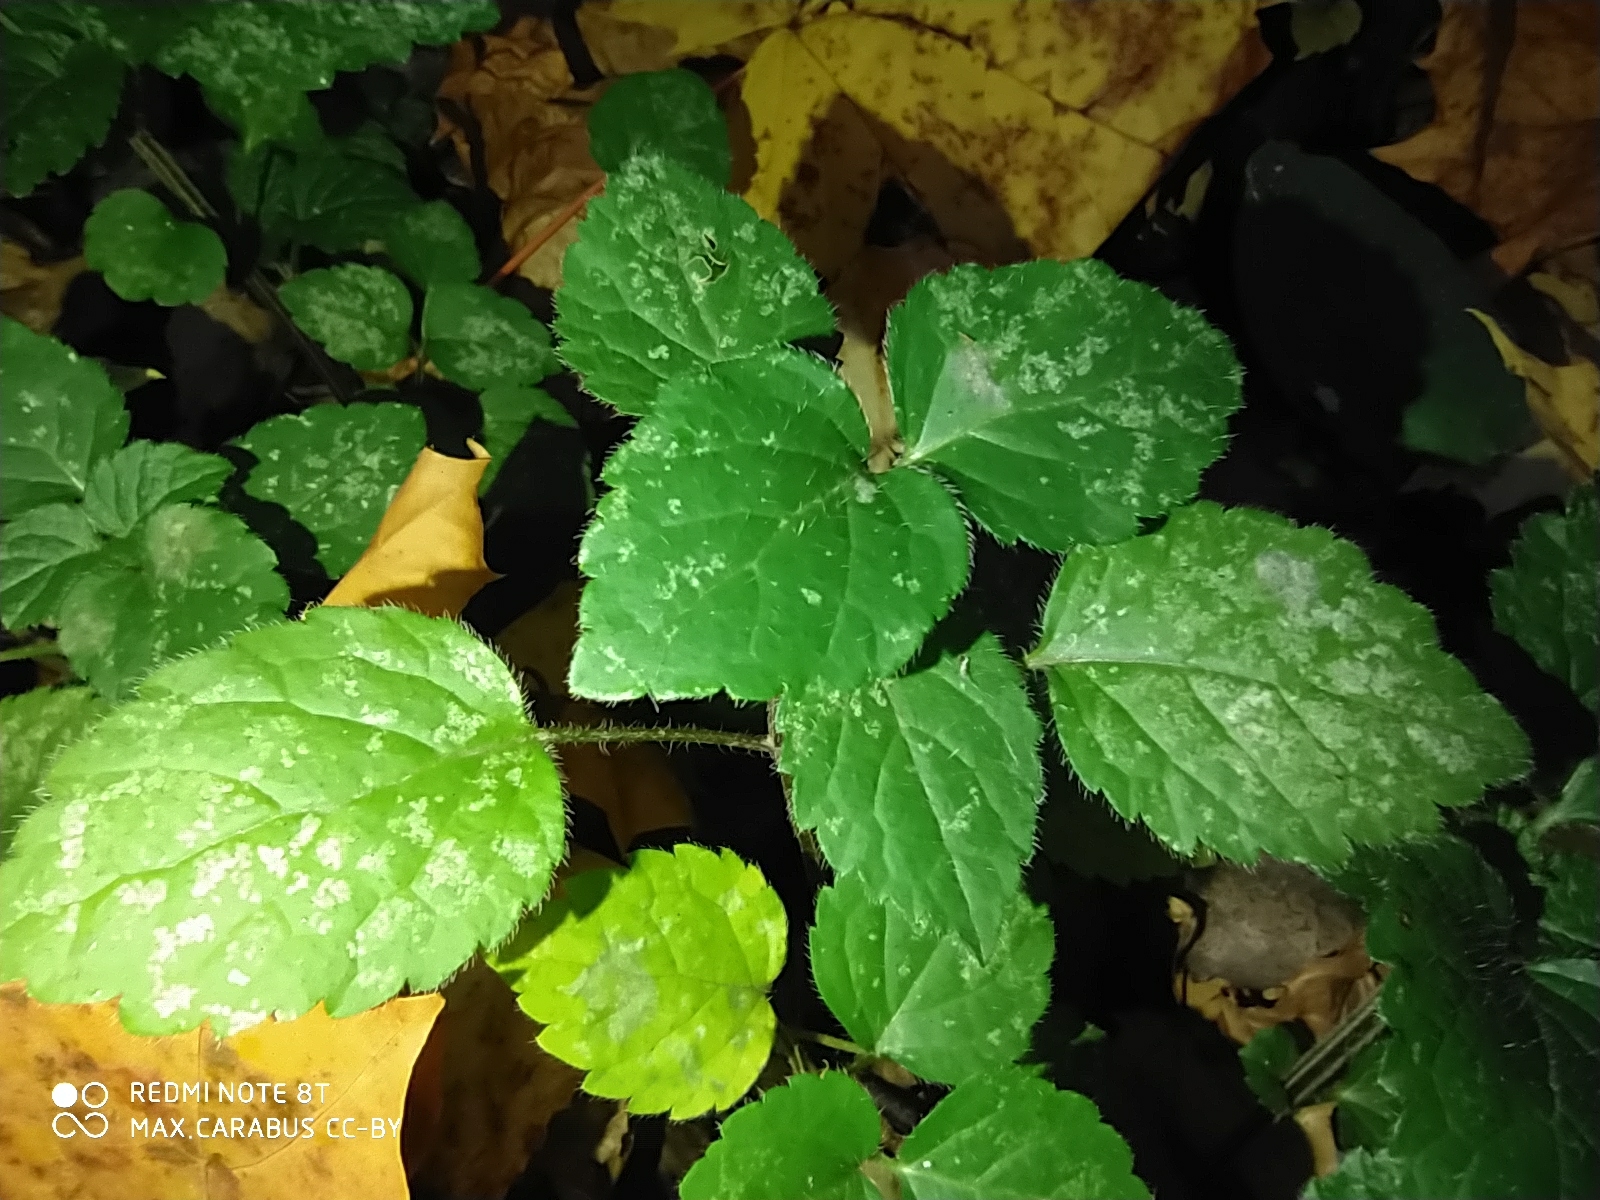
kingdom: Plantae
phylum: Tracheophyta
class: Magnoliopsida
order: Lamiales
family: Lamiaceae
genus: Lamium
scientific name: Lamium galeobdolon
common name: Yellow archangel
